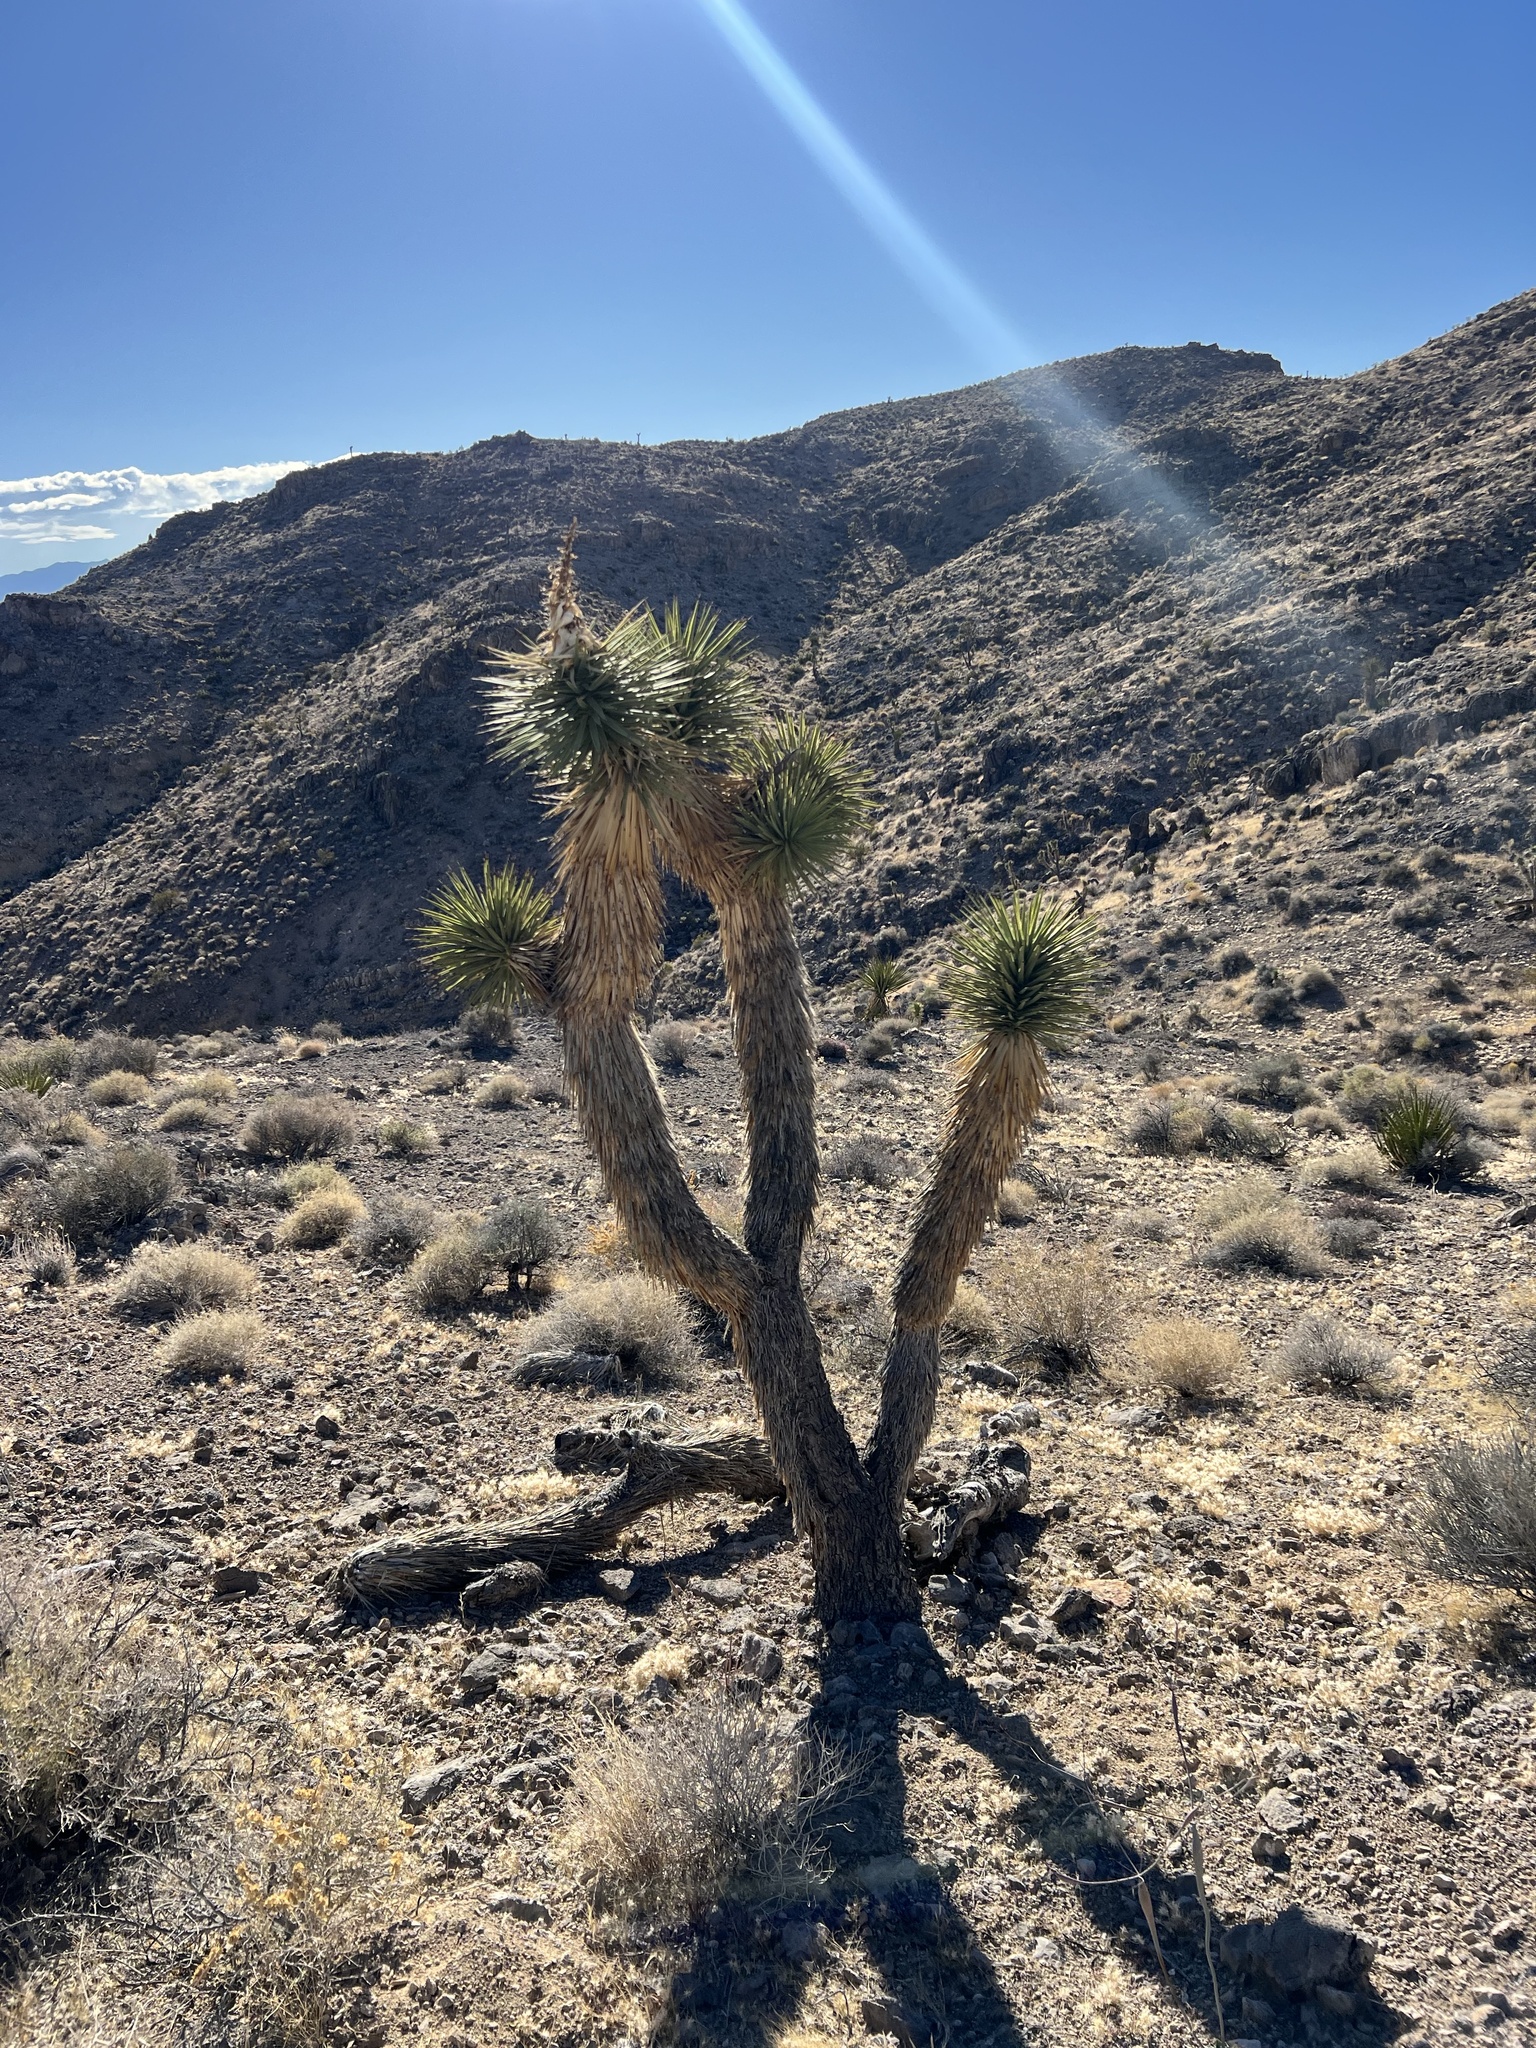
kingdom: Plantae
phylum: Tracheophyta
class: Liliopsida
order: Asparagales
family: Asparagaceae
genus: Yucca
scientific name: Yucca brevifolia
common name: Joshua tree
